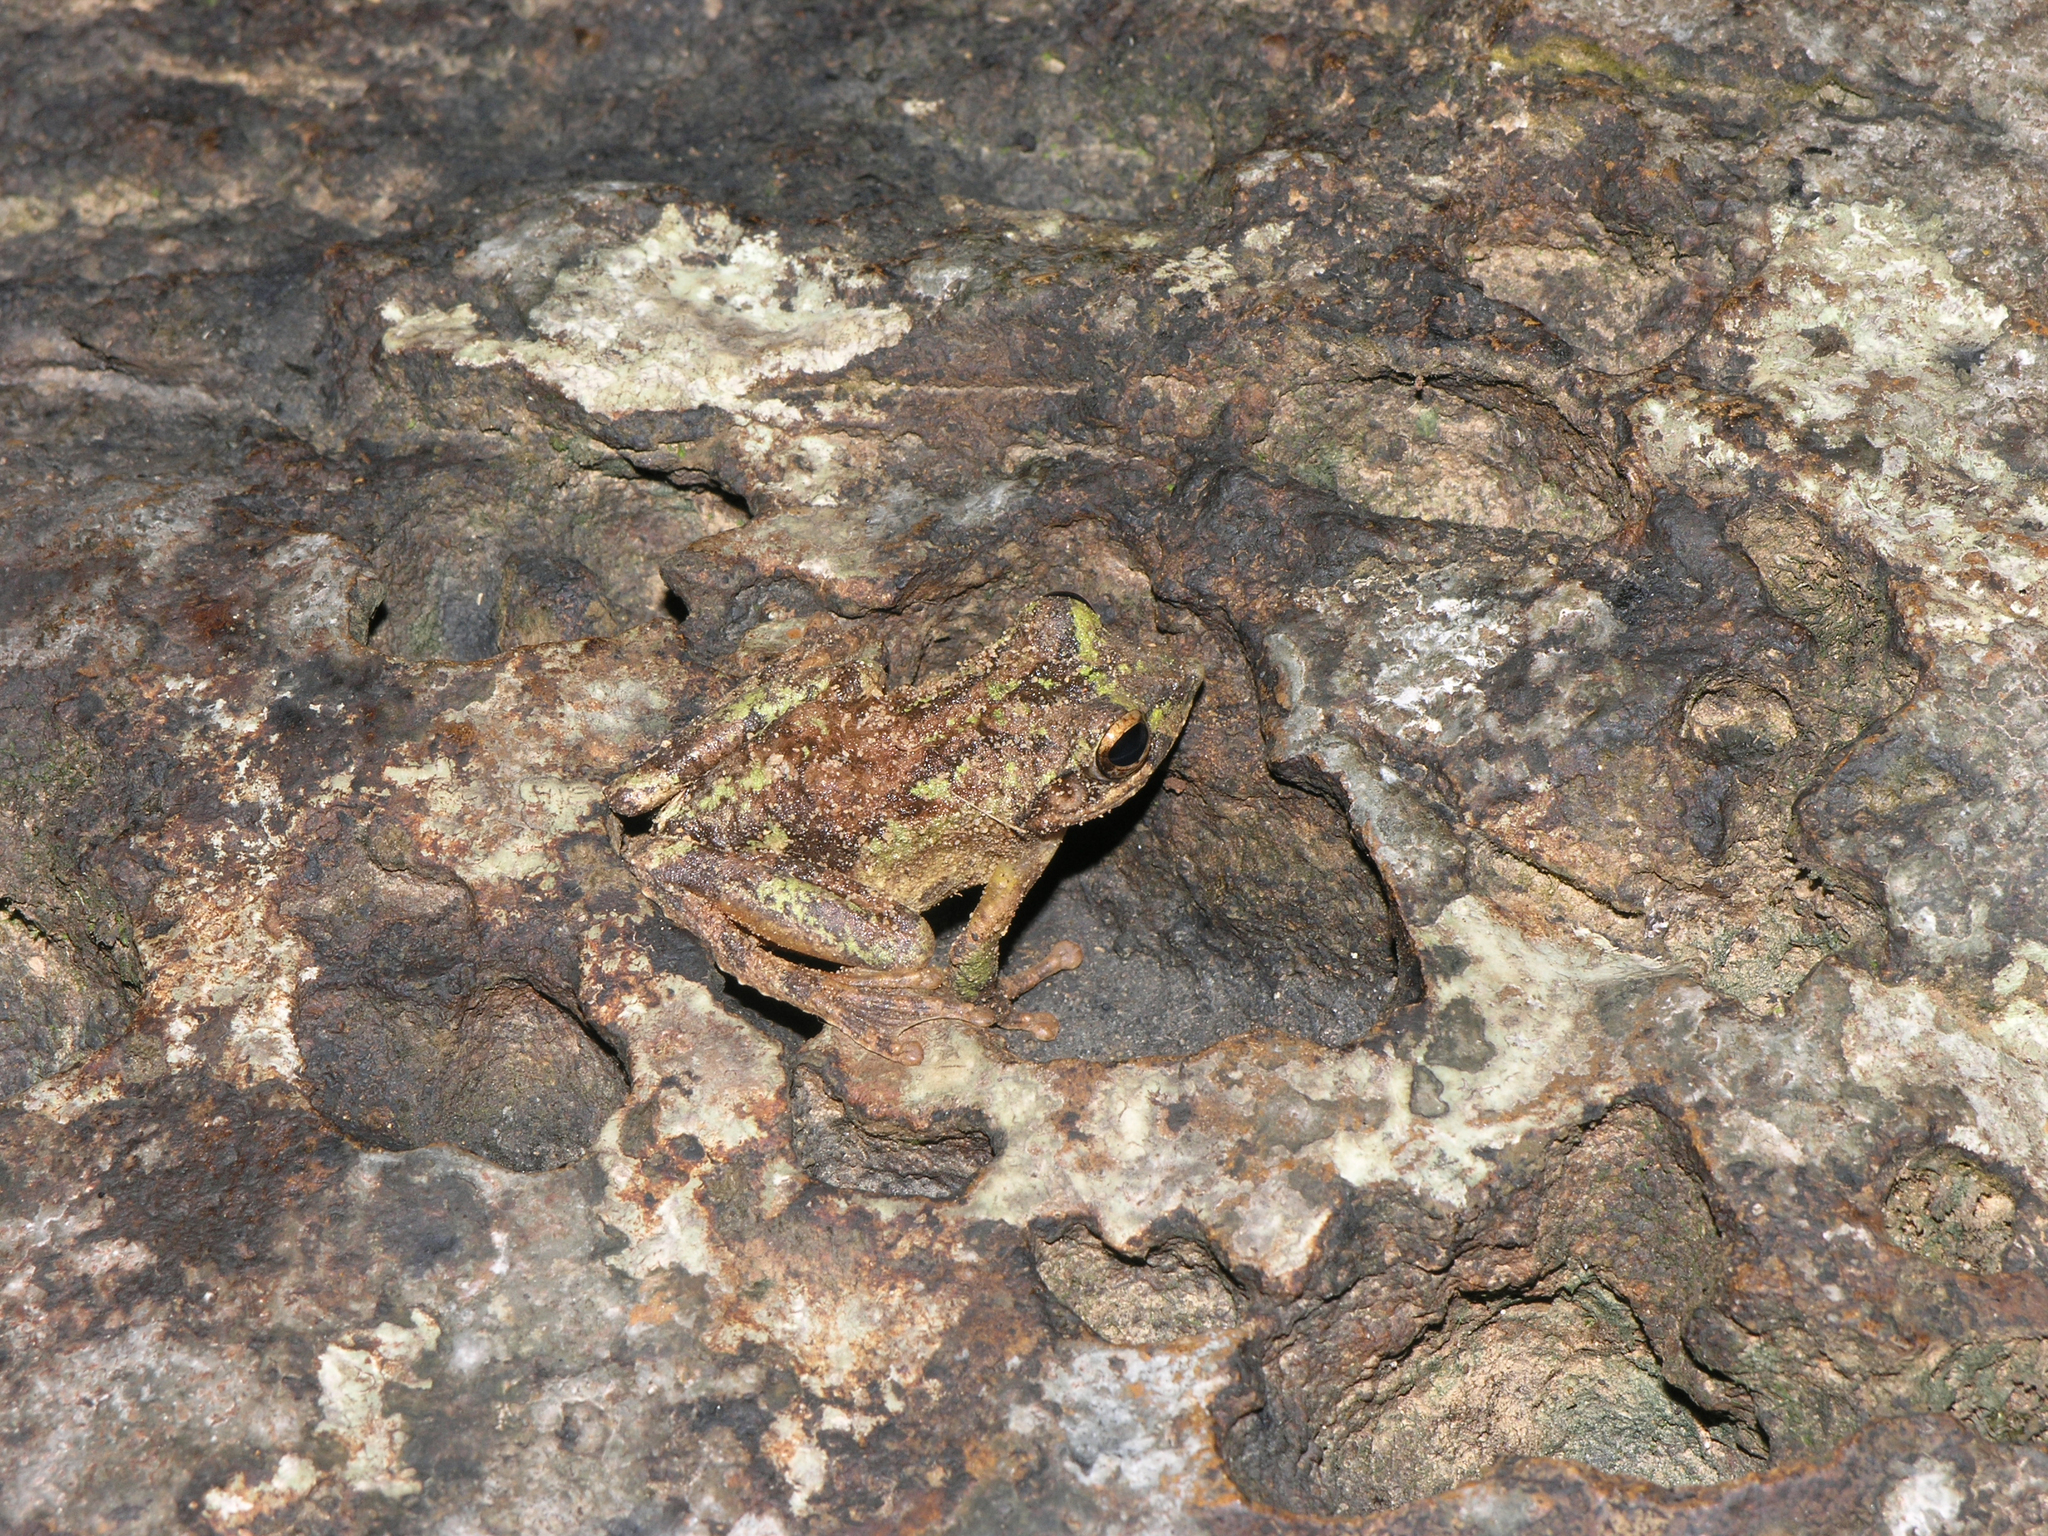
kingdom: Animalia
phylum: Chordata
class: Amphibia
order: Anura
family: Rhacophoridae
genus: Kurixalus
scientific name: Kurixalus bisacculus
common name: Green-limbed tree frog
